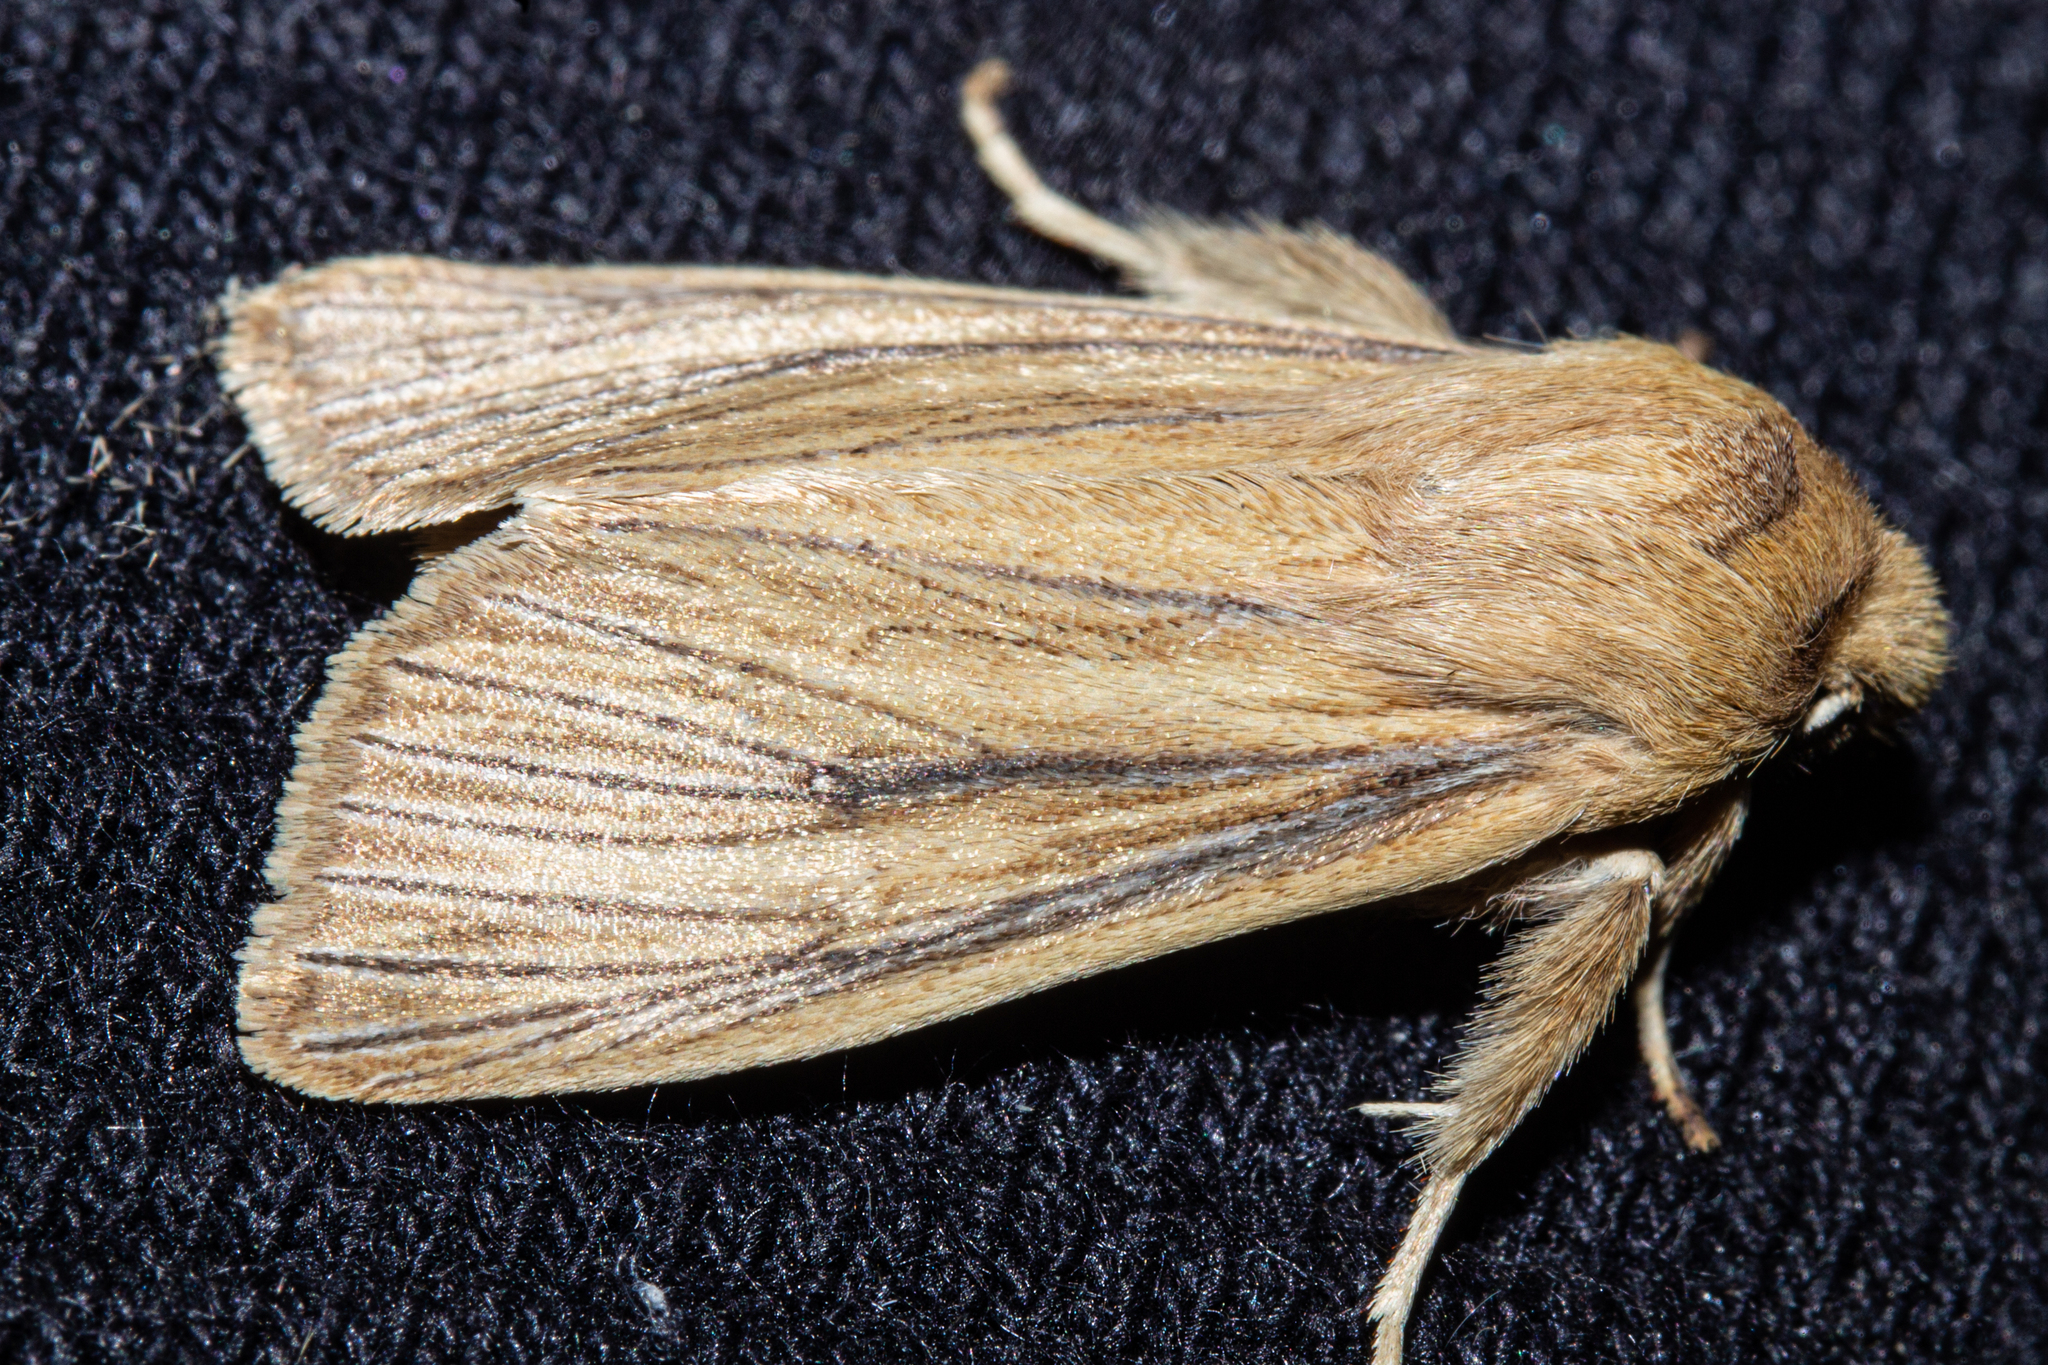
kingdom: Animalia
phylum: Arthropoda
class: Insecta
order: Lepidoptera
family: Noctuidae
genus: Ichneutica
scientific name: Ichneutica arotis
